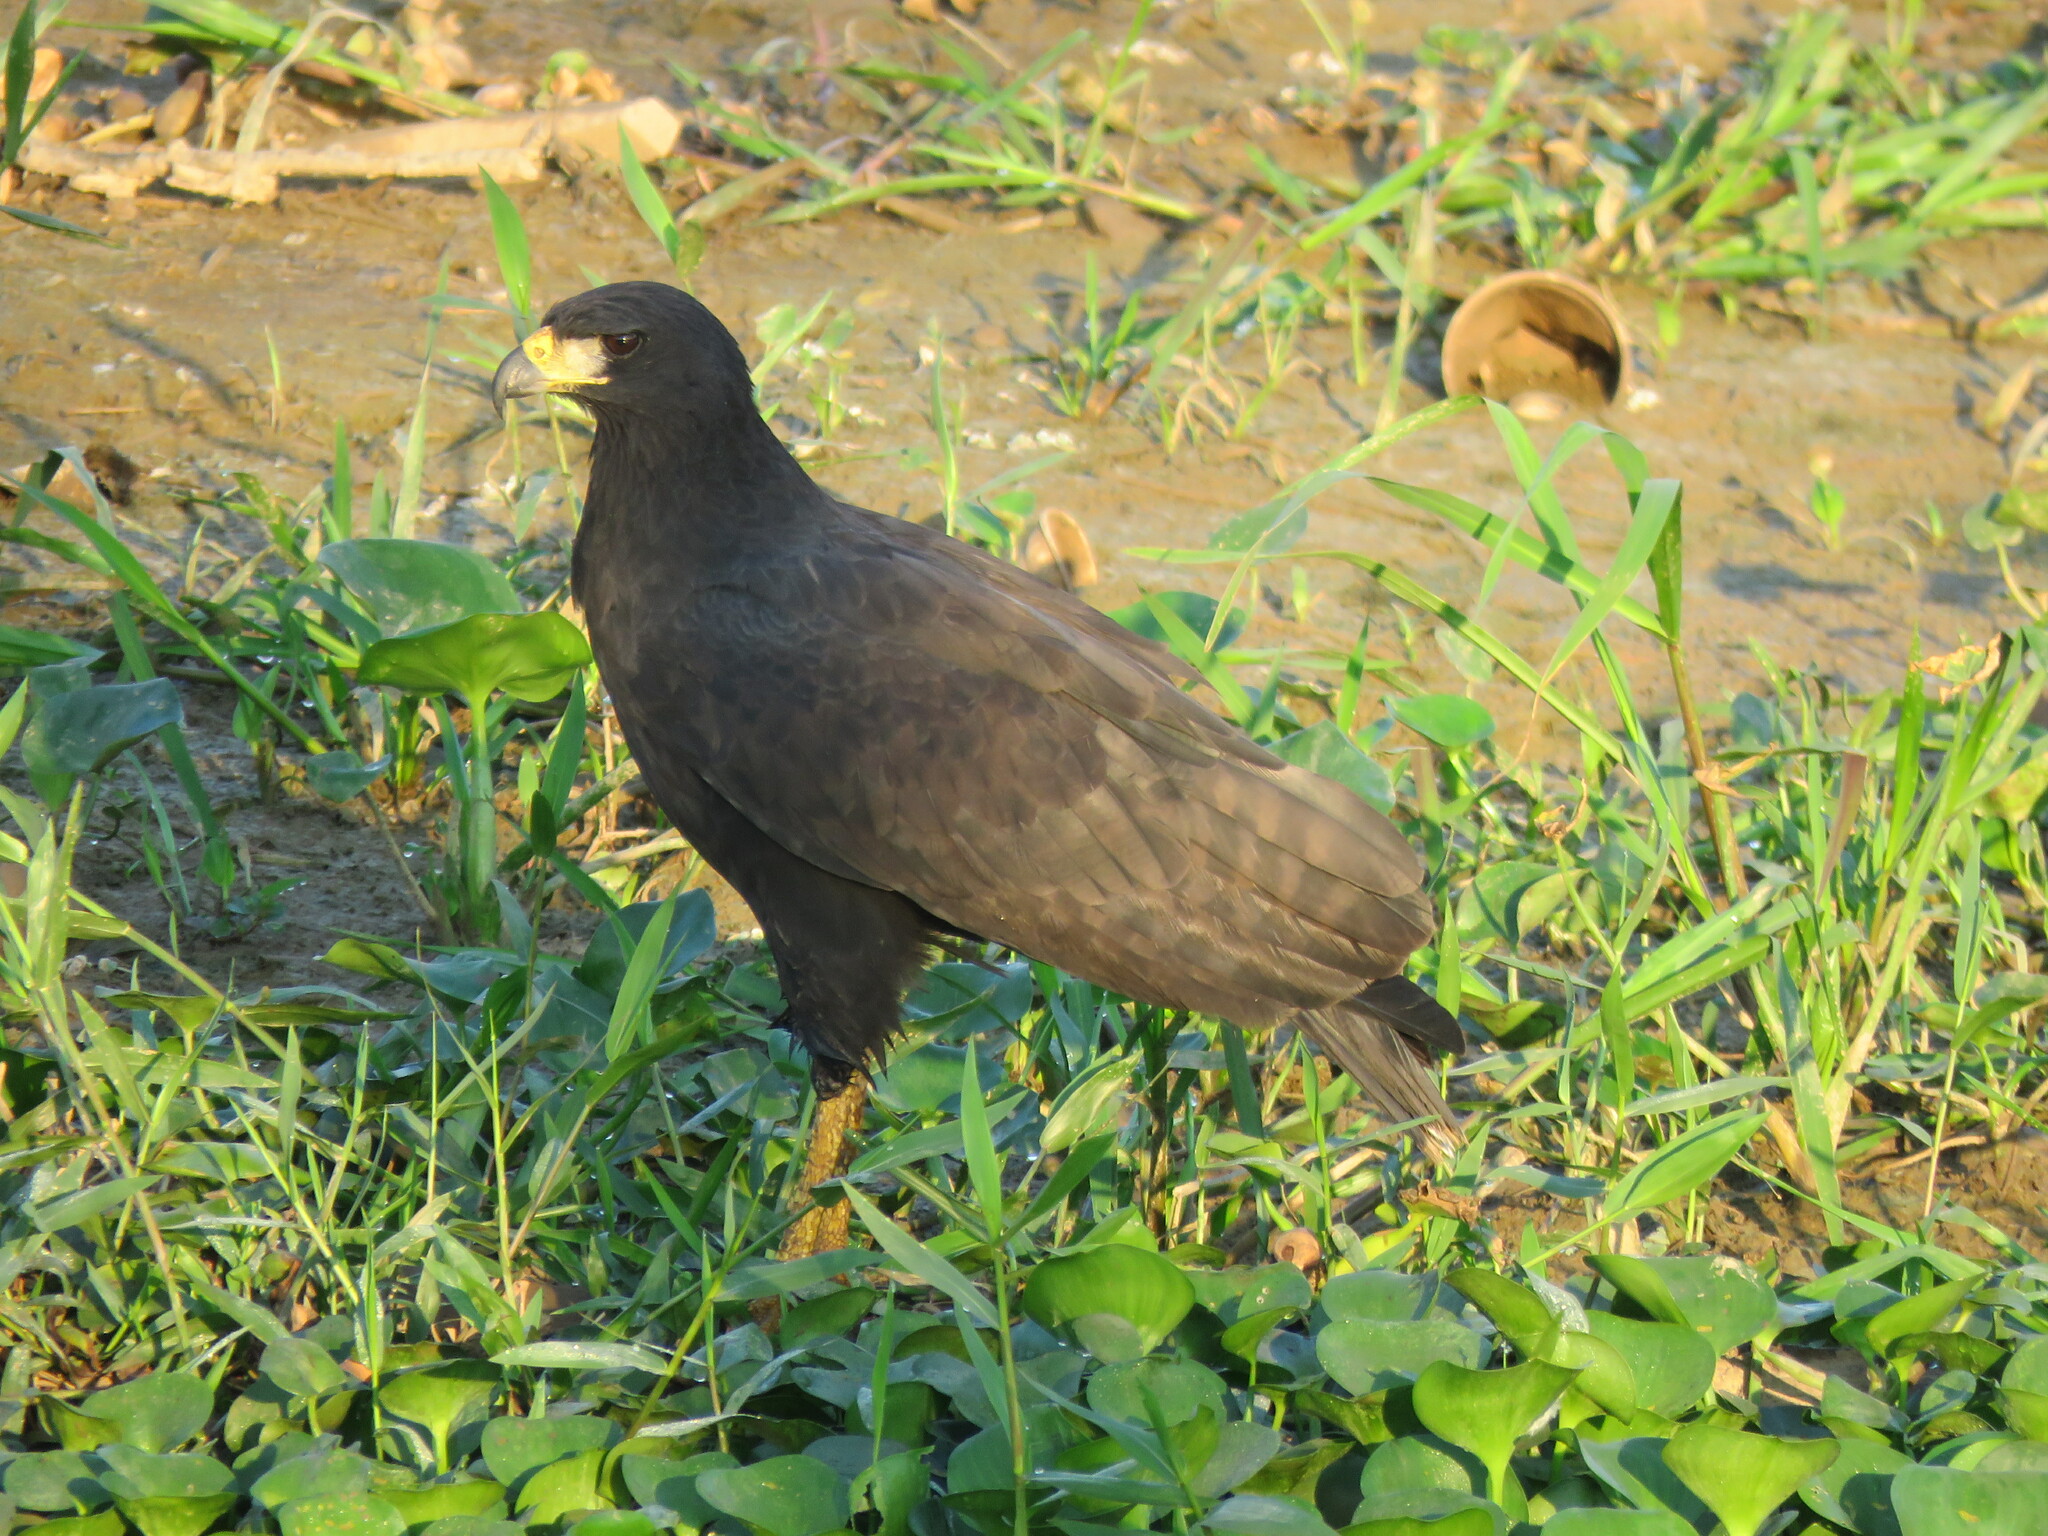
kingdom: Animalia
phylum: Chordata
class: Aves
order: Accipitriformes
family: Accipitridae
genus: Buteogallus
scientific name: Buteogallus urubitinga
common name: Great black hawk
